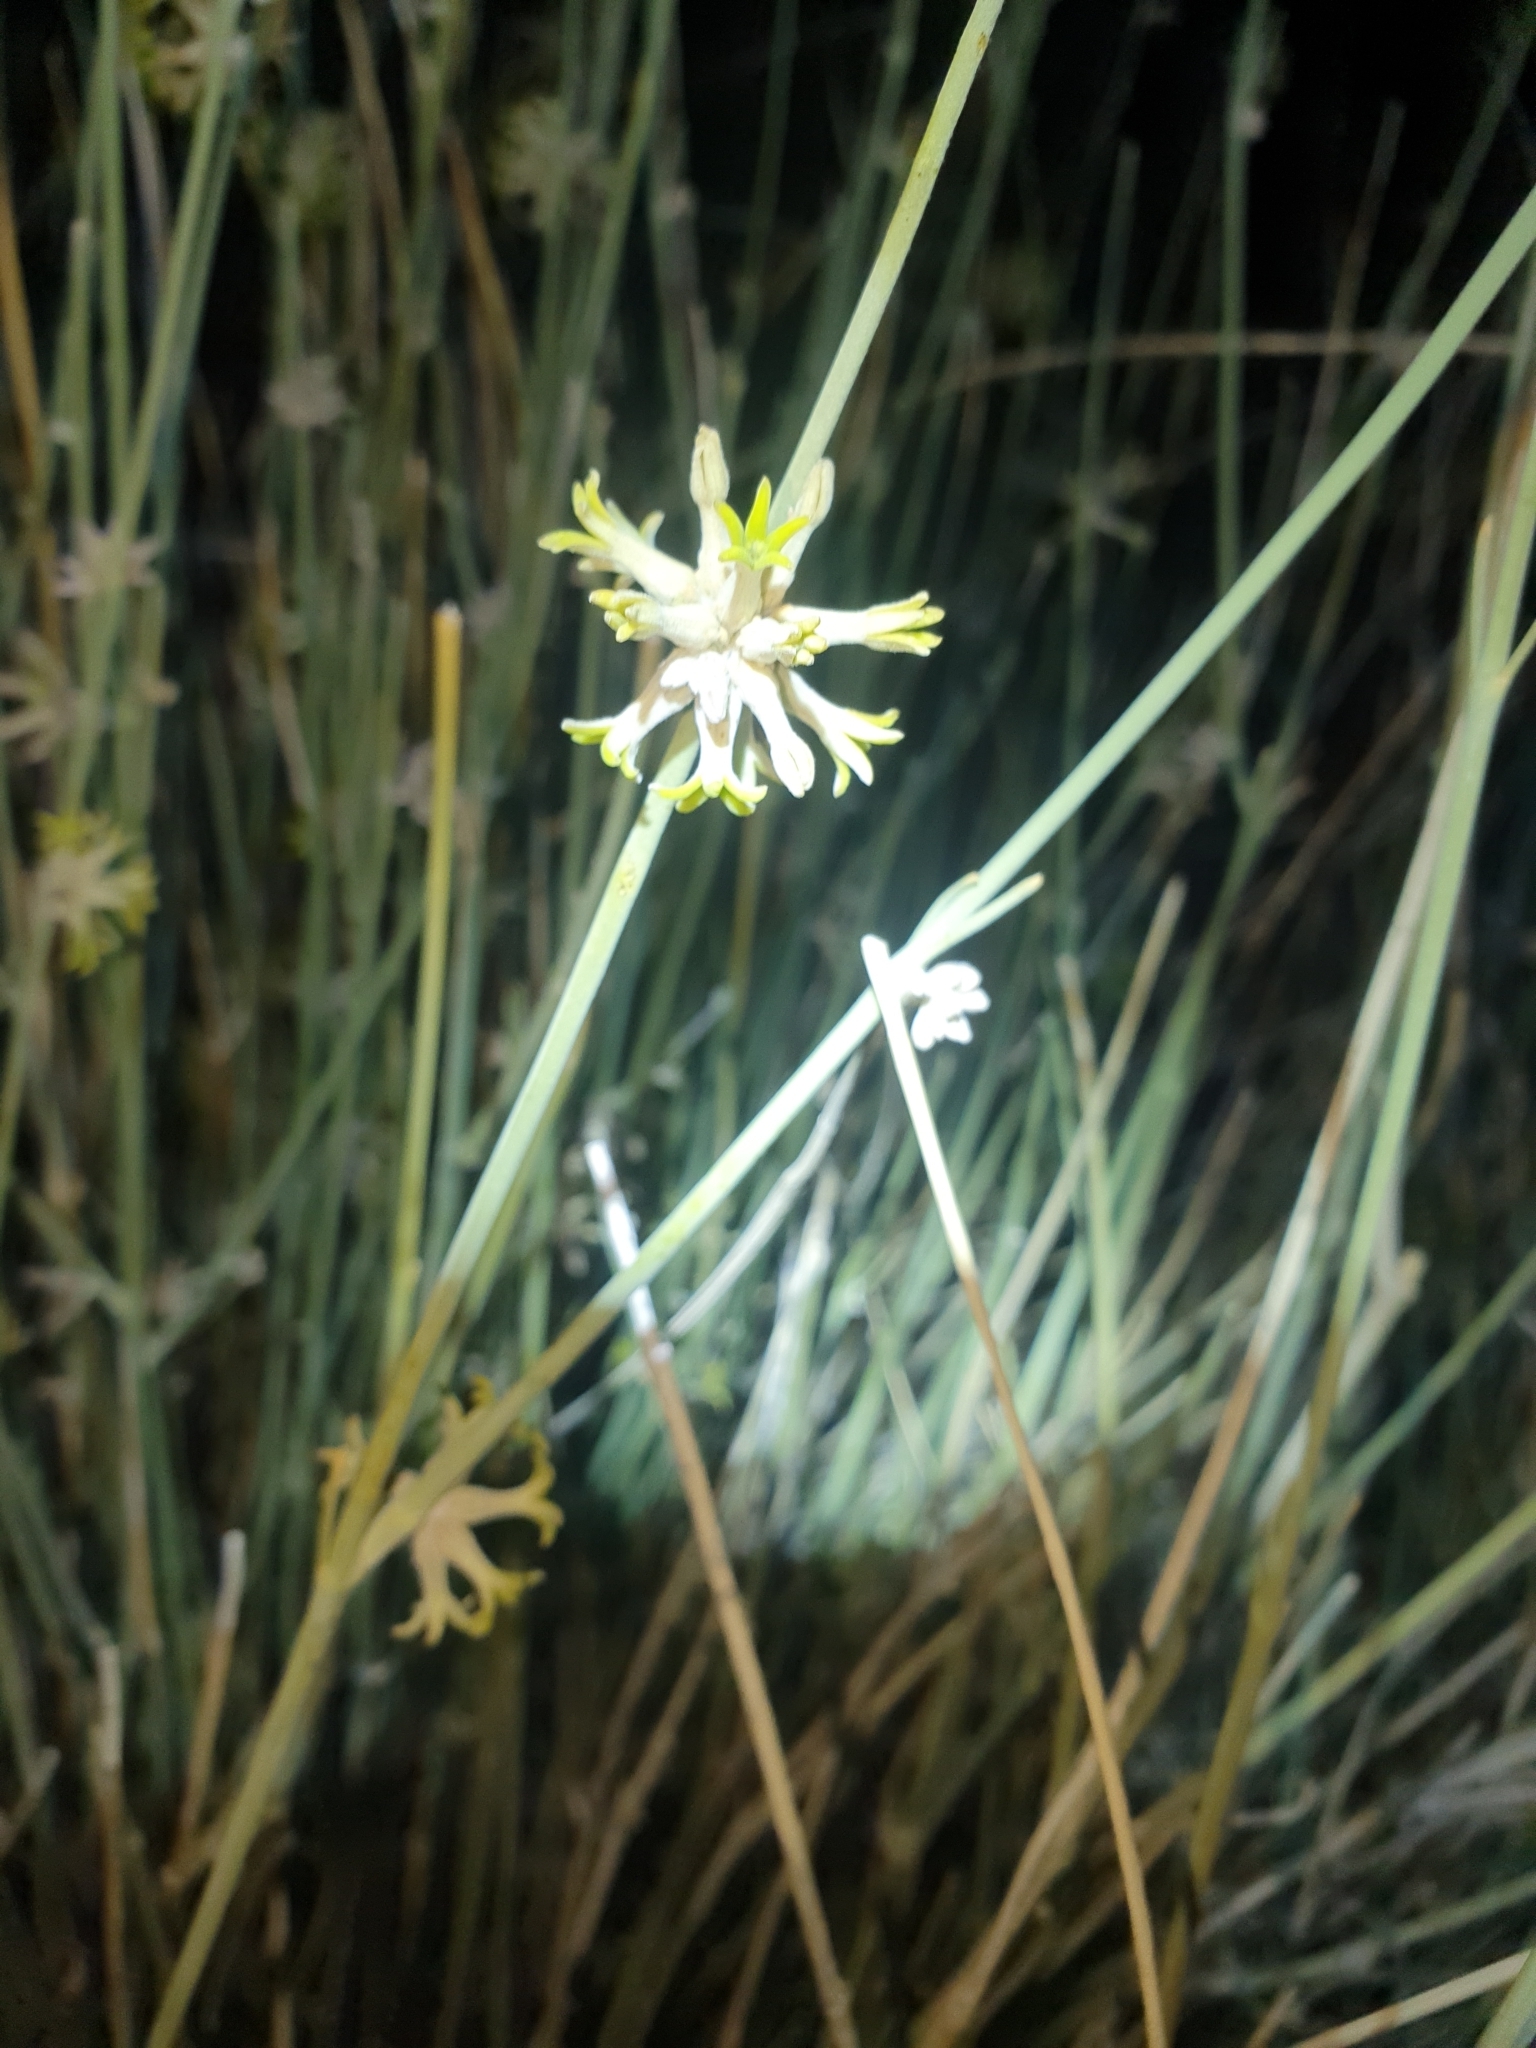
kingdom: Plantae
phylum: Tracheophyta
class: Magnoliopsida
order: Gentianales
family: Apocynaceae
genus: Orthanthera
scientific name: Orthanthera albida
